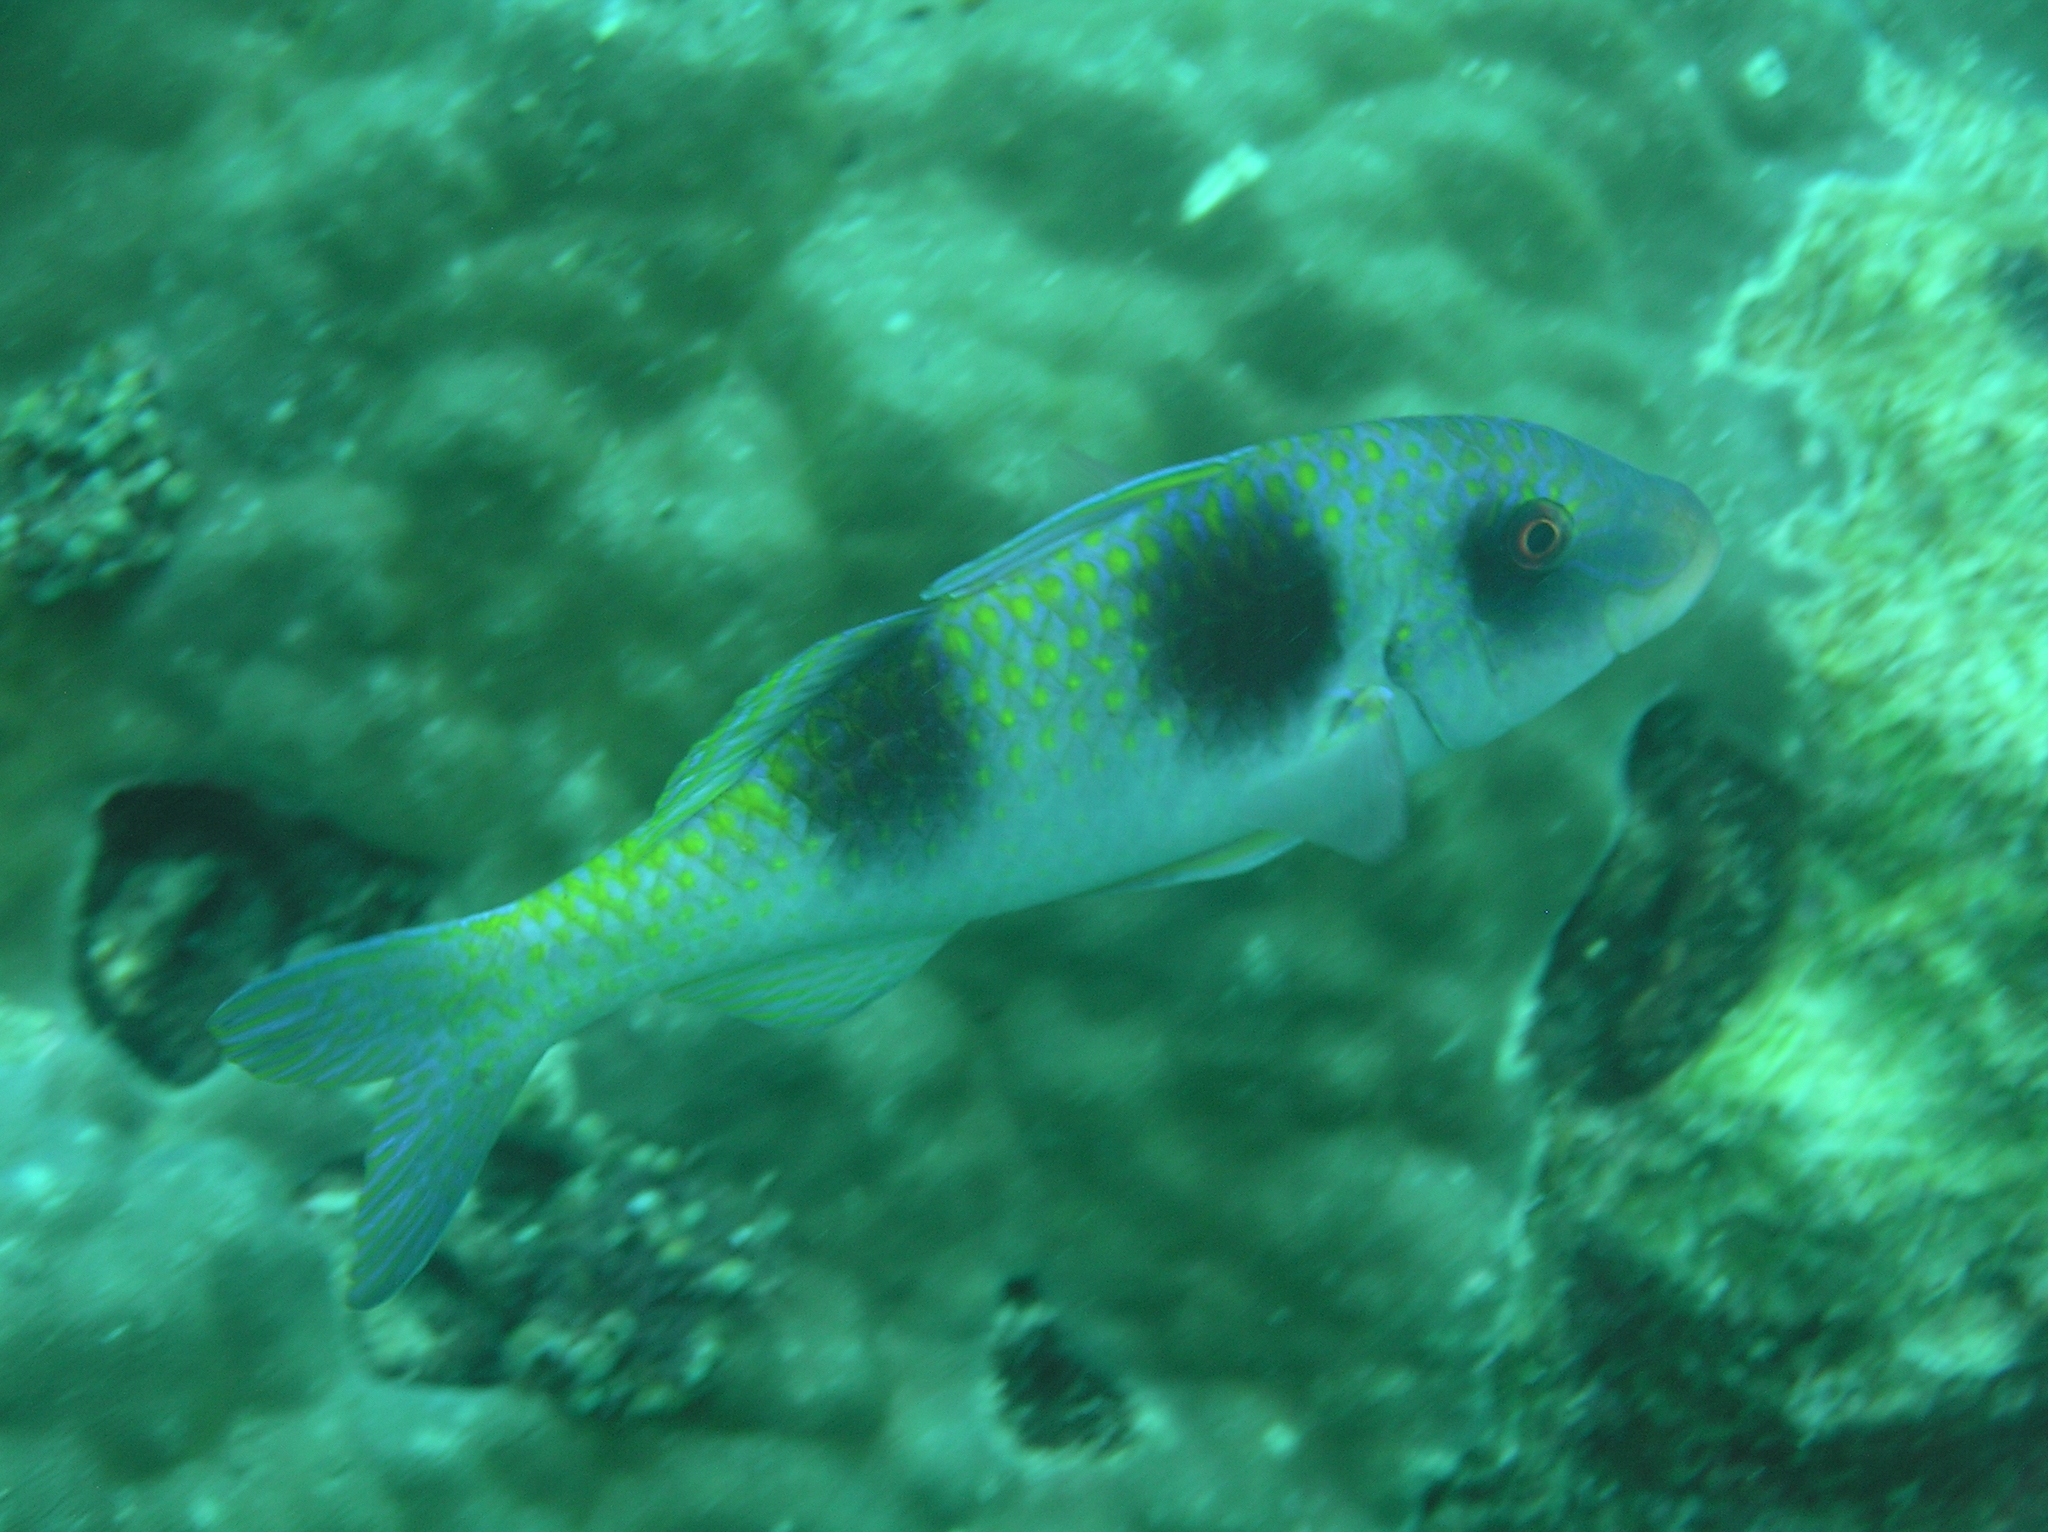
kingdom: Animalia
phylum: Chordata
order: Perciformes
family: Mullidae
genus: Parupeneus
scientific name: Parupeneus crassilabris
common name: Doublebar goatfish
